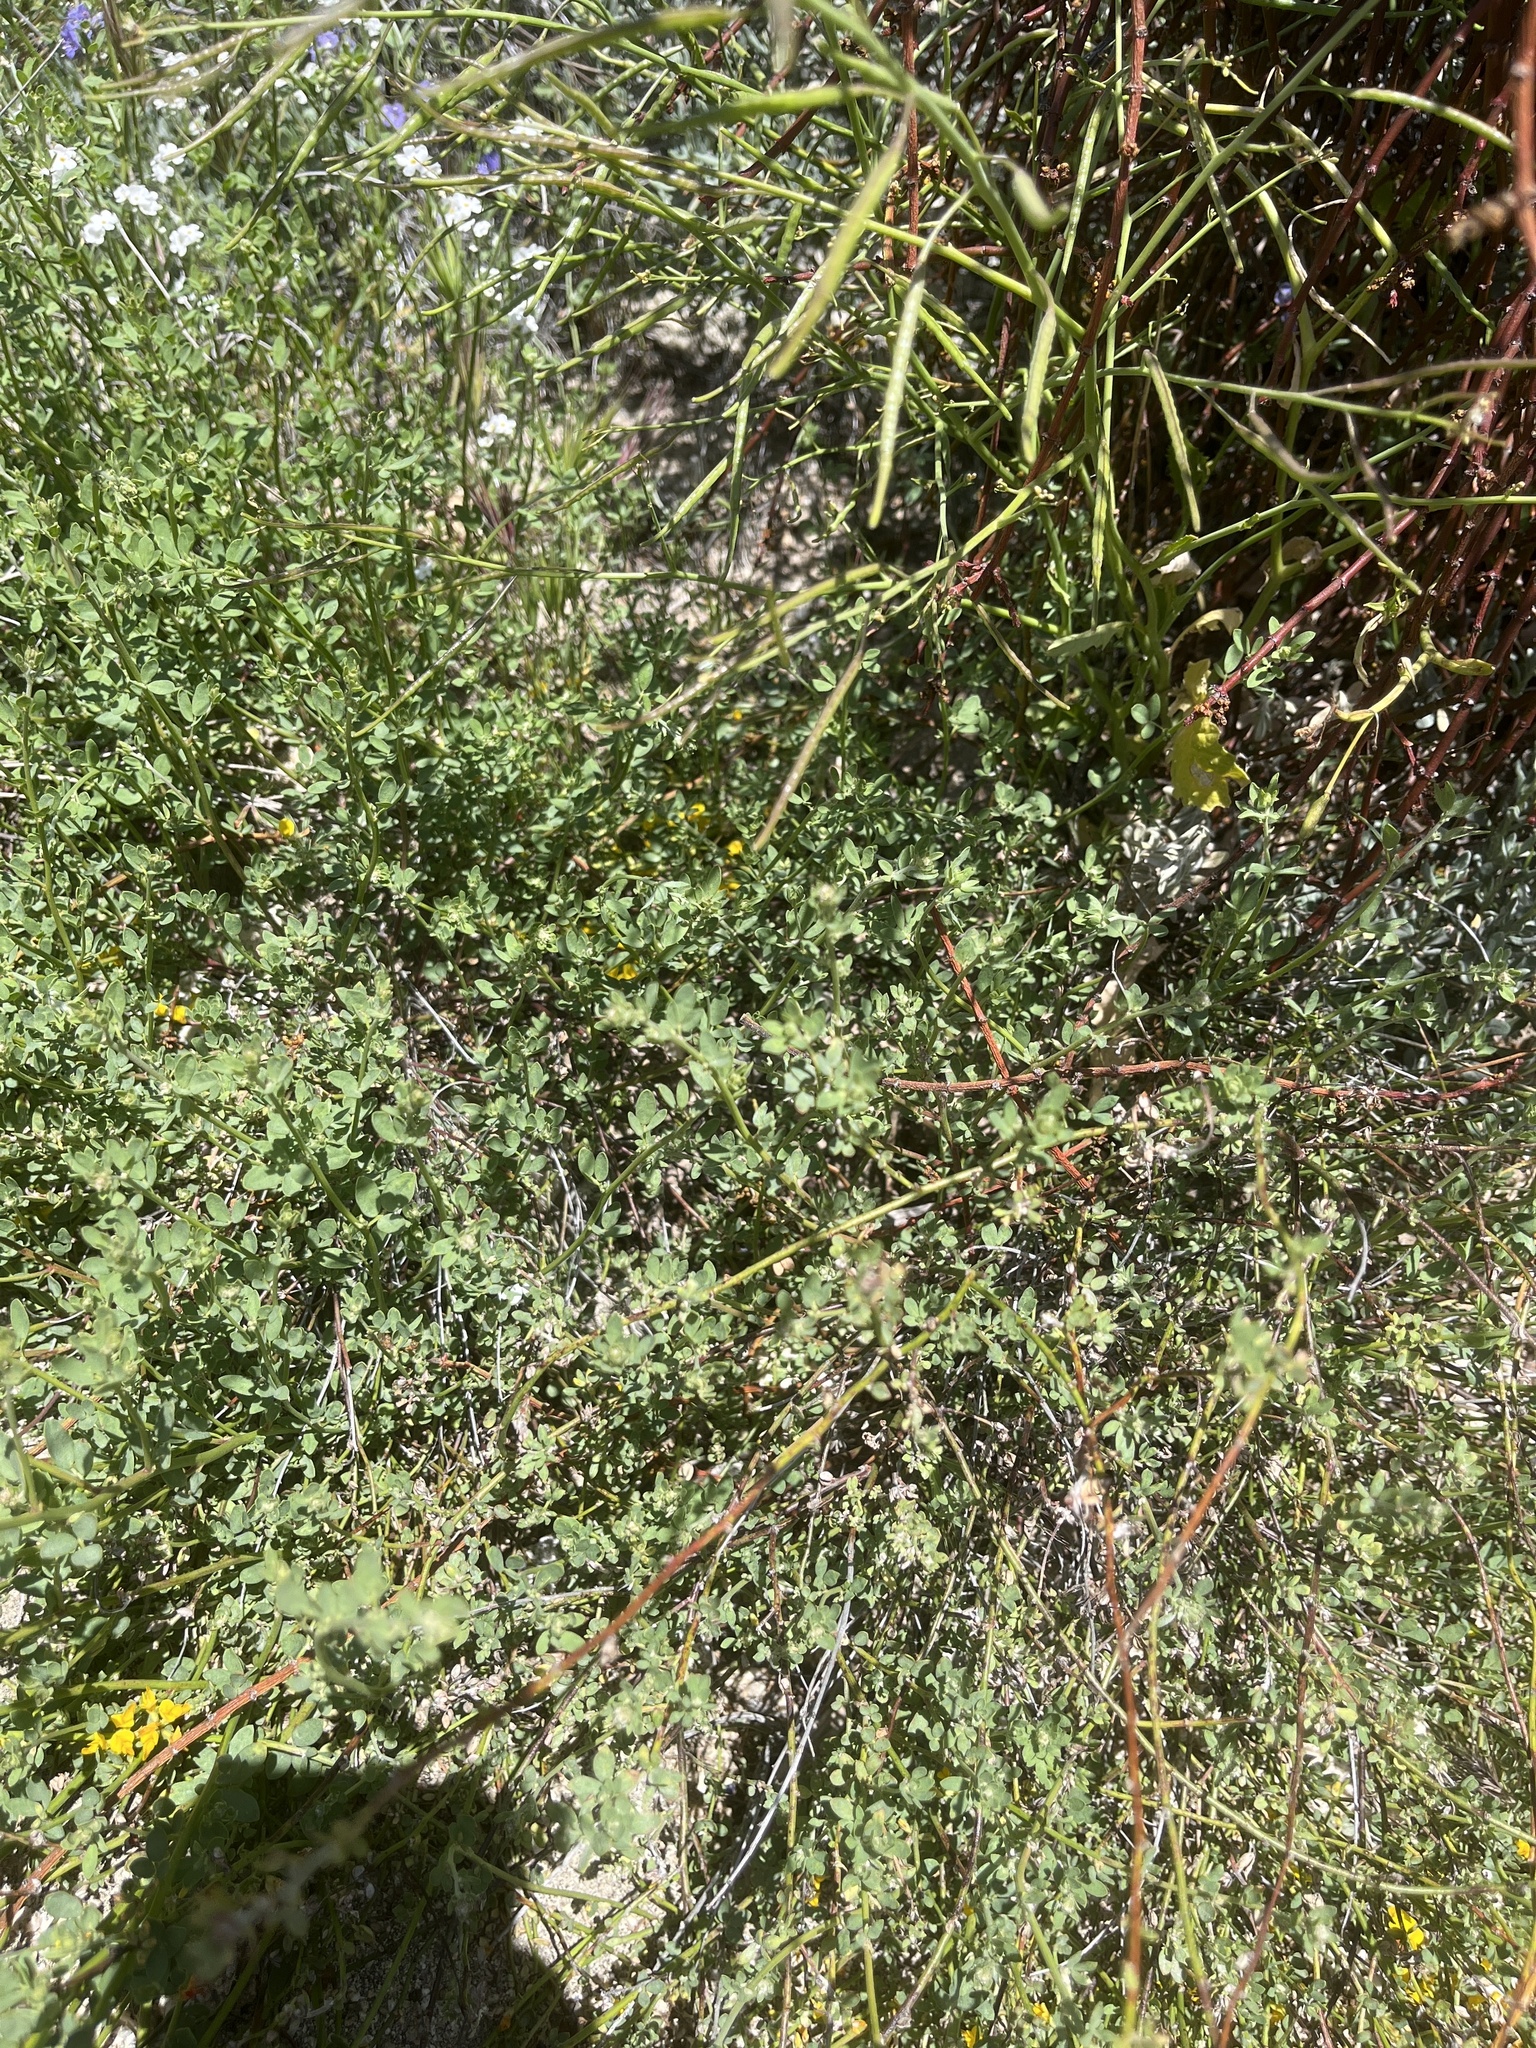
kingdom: Plantae
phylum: Tracheophyta
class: Magnoliopsida
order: Fabales
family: Fabaceae
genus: Acmispon
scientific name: Acmispon glaber
